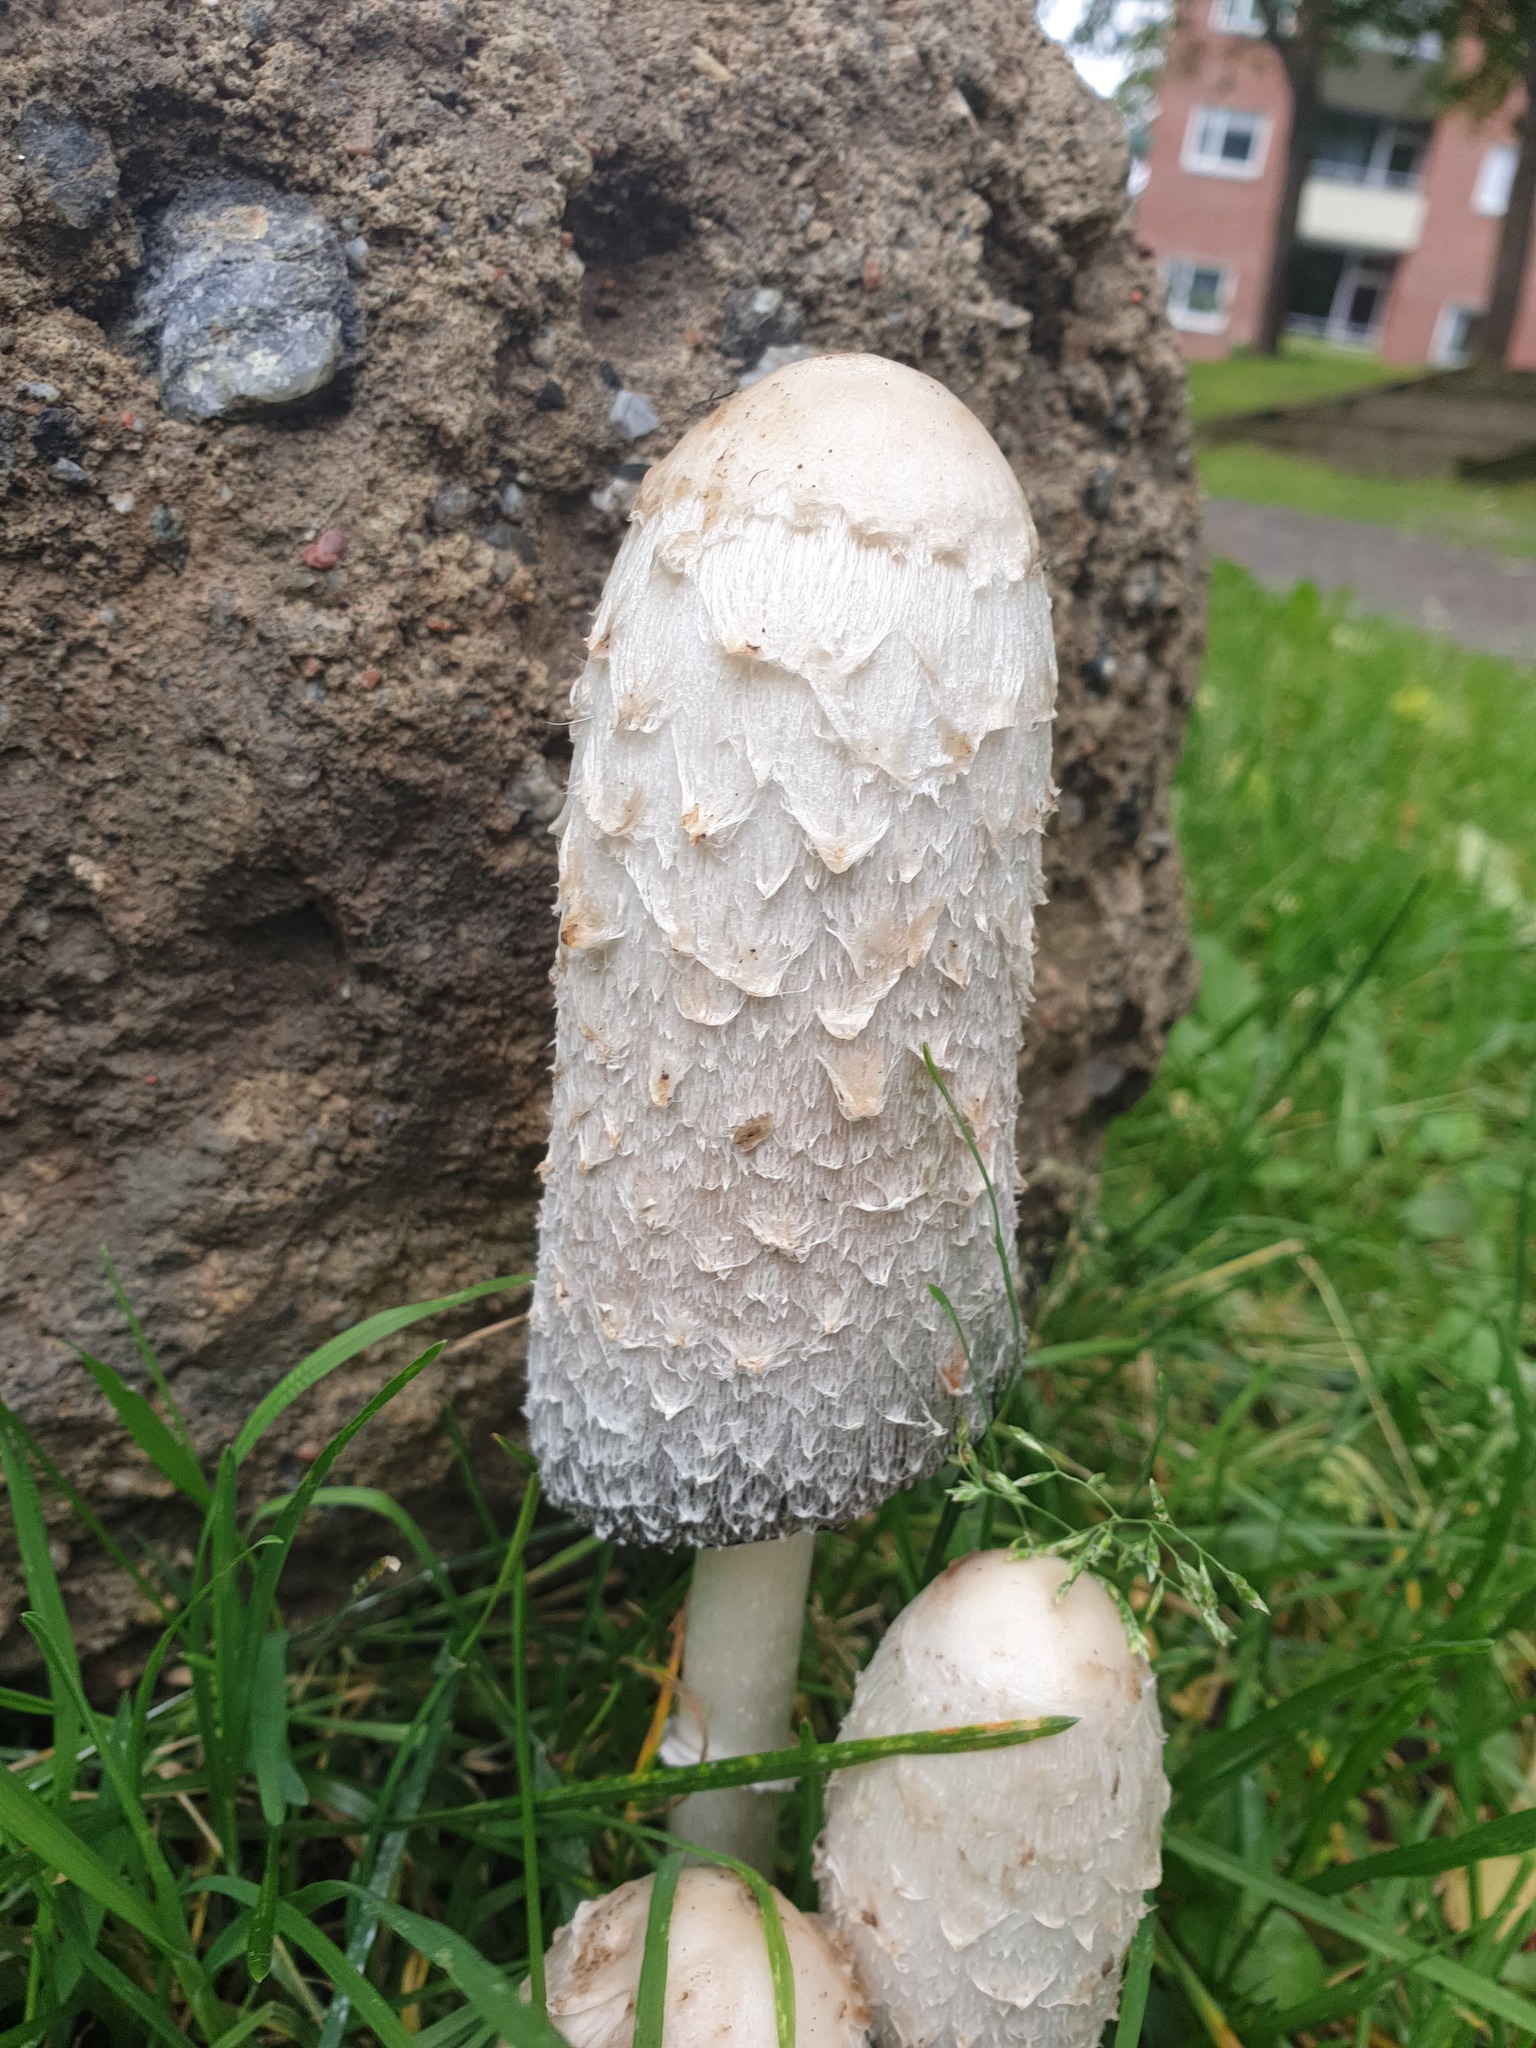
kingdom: Fungi
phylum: Basidiomycota
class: Agaricomycetes
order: Agaricales
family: Agaricaceae
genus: Coprinus
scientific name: Coprinus comatus
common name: Lawyer's wig
